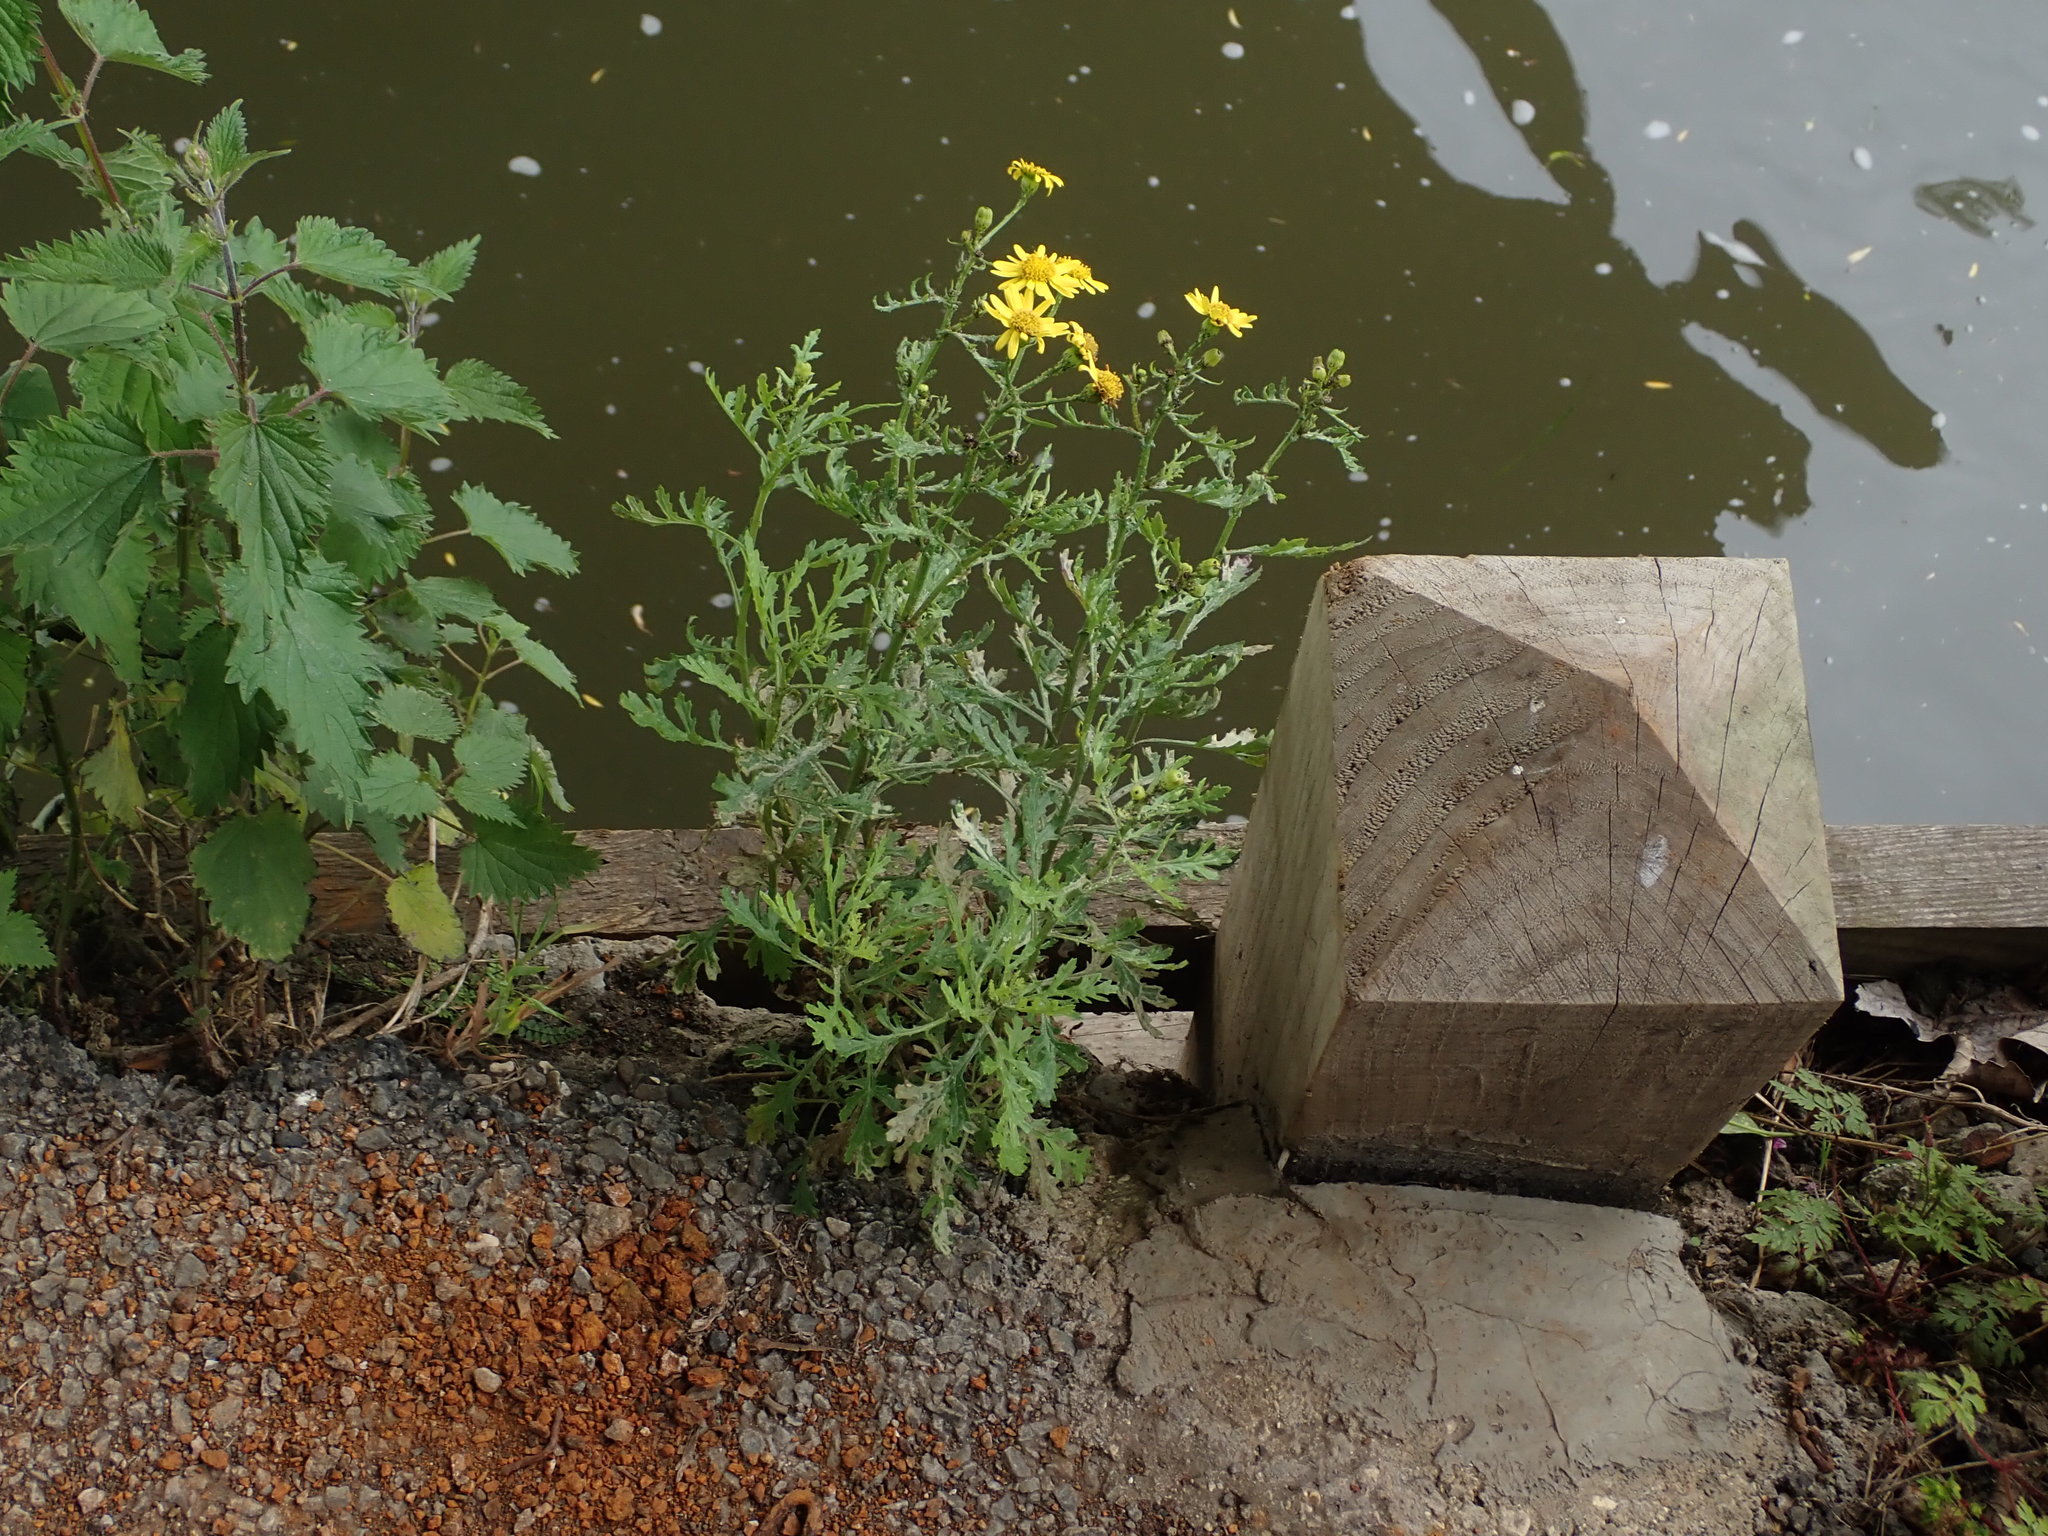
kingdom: Plantae
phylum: Tracheophyta
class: Magnoliopsida
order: Asterales
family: Asteraceae
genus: Senecio
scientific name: Senecio squalidus
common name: Oxford ragwort
